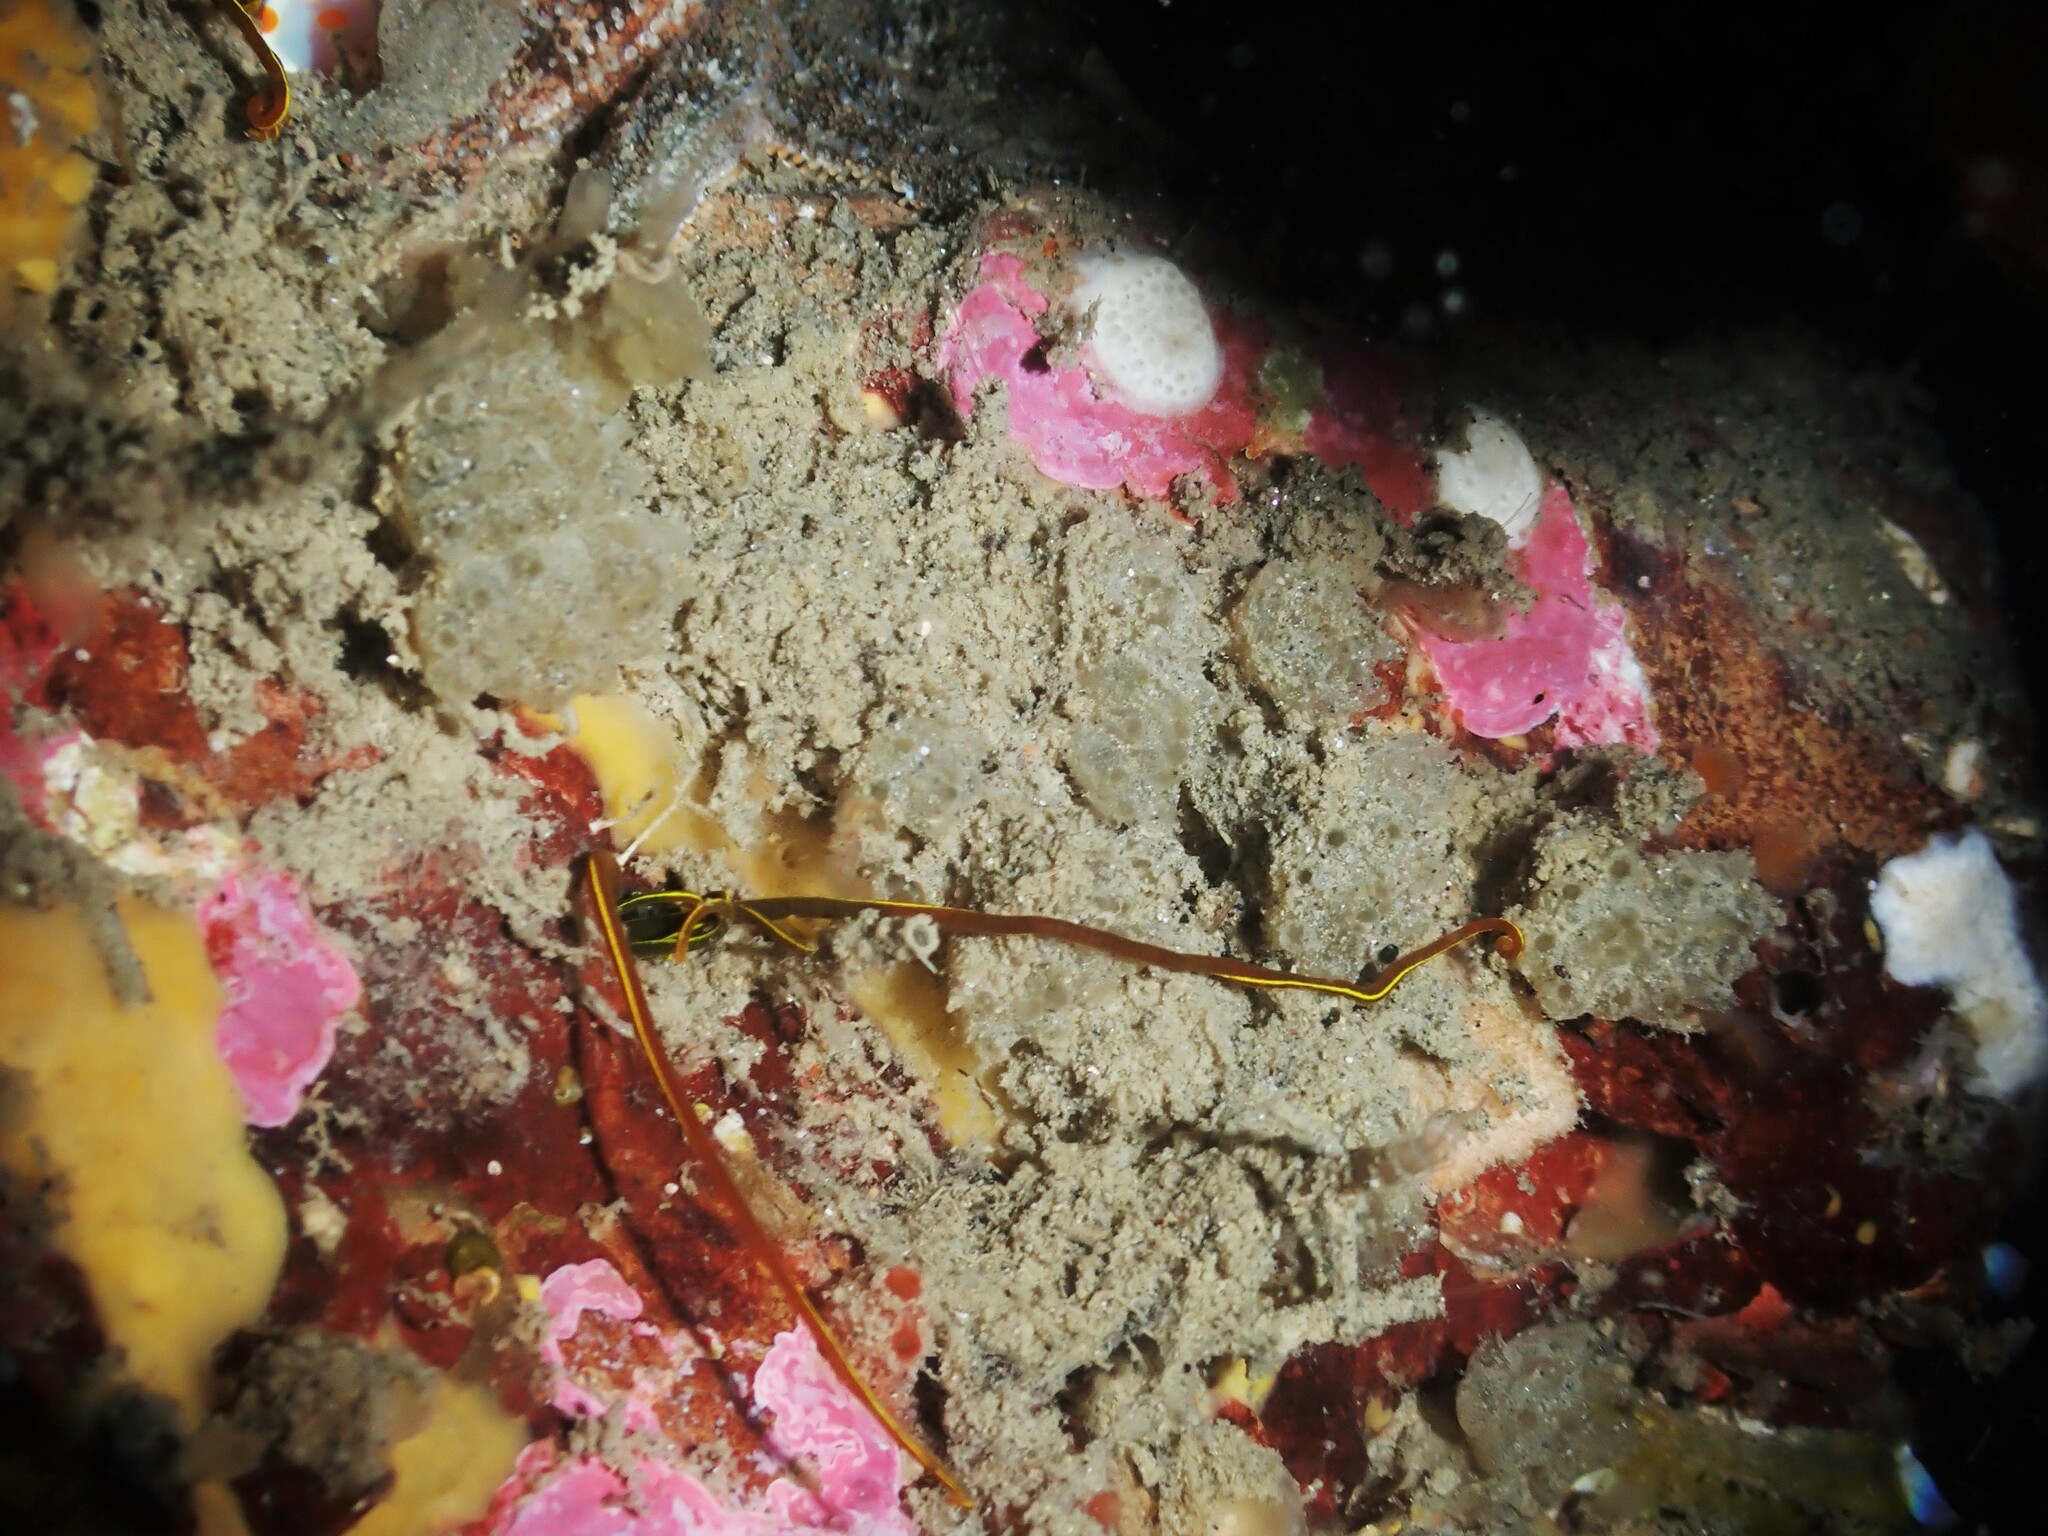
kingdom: Animalia
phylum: Annelida
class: Polychaeta
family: Acrocirridae
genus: Acrocirrus
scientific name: Acrocirrus trisectus
